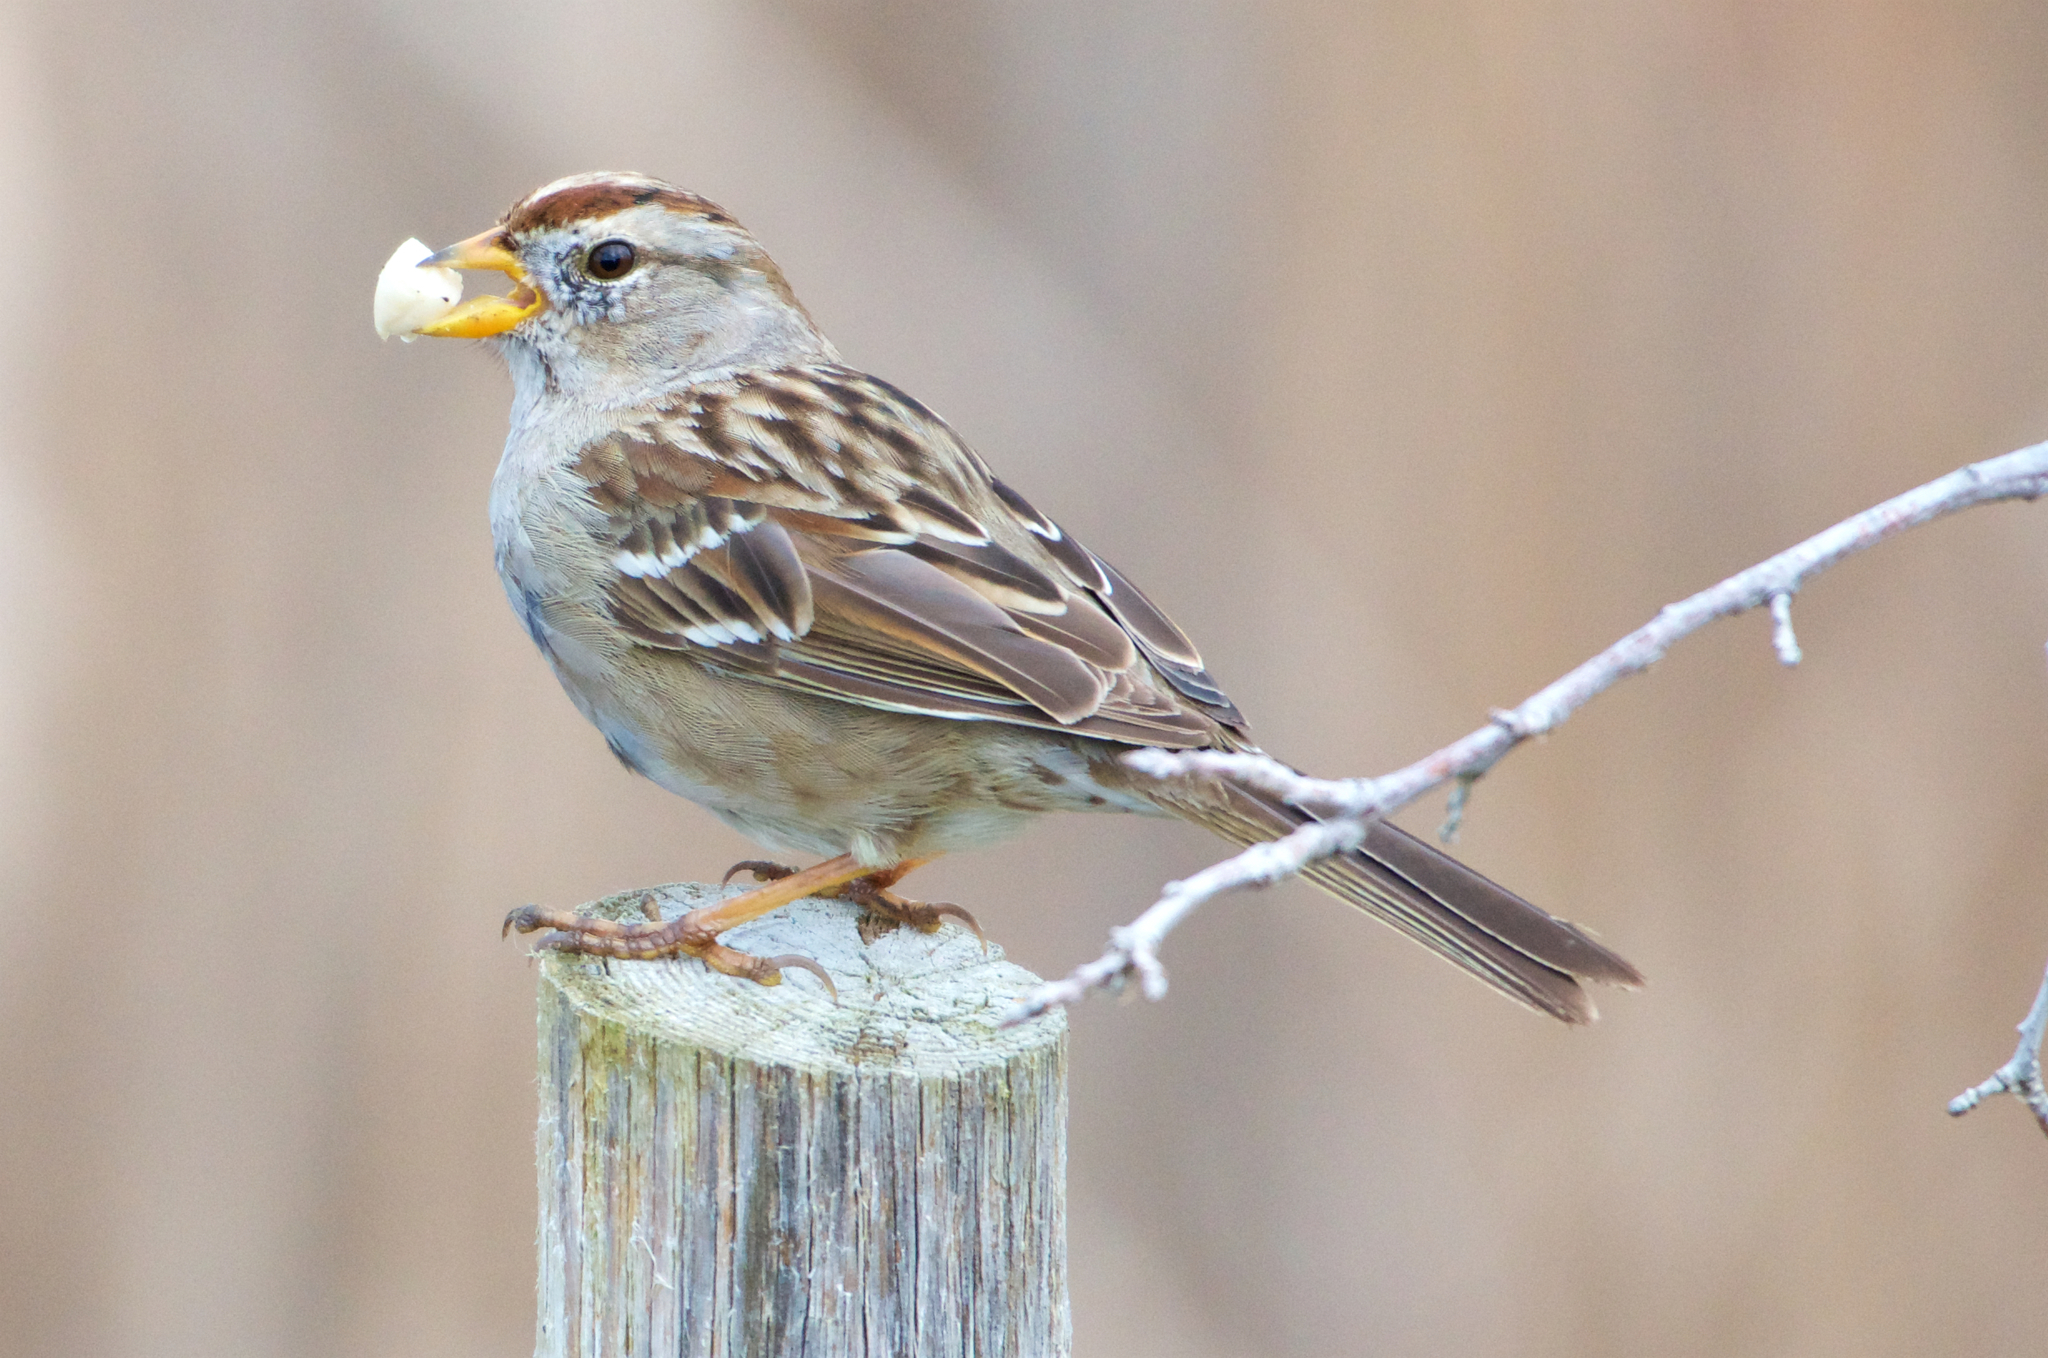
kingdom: Animalia
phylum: Chordata
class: Aves
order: Passeriformes
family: Passerellidae
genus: Zonotrichia
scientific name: Zonotrichia leucophrys
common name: White-crowned sparrow
